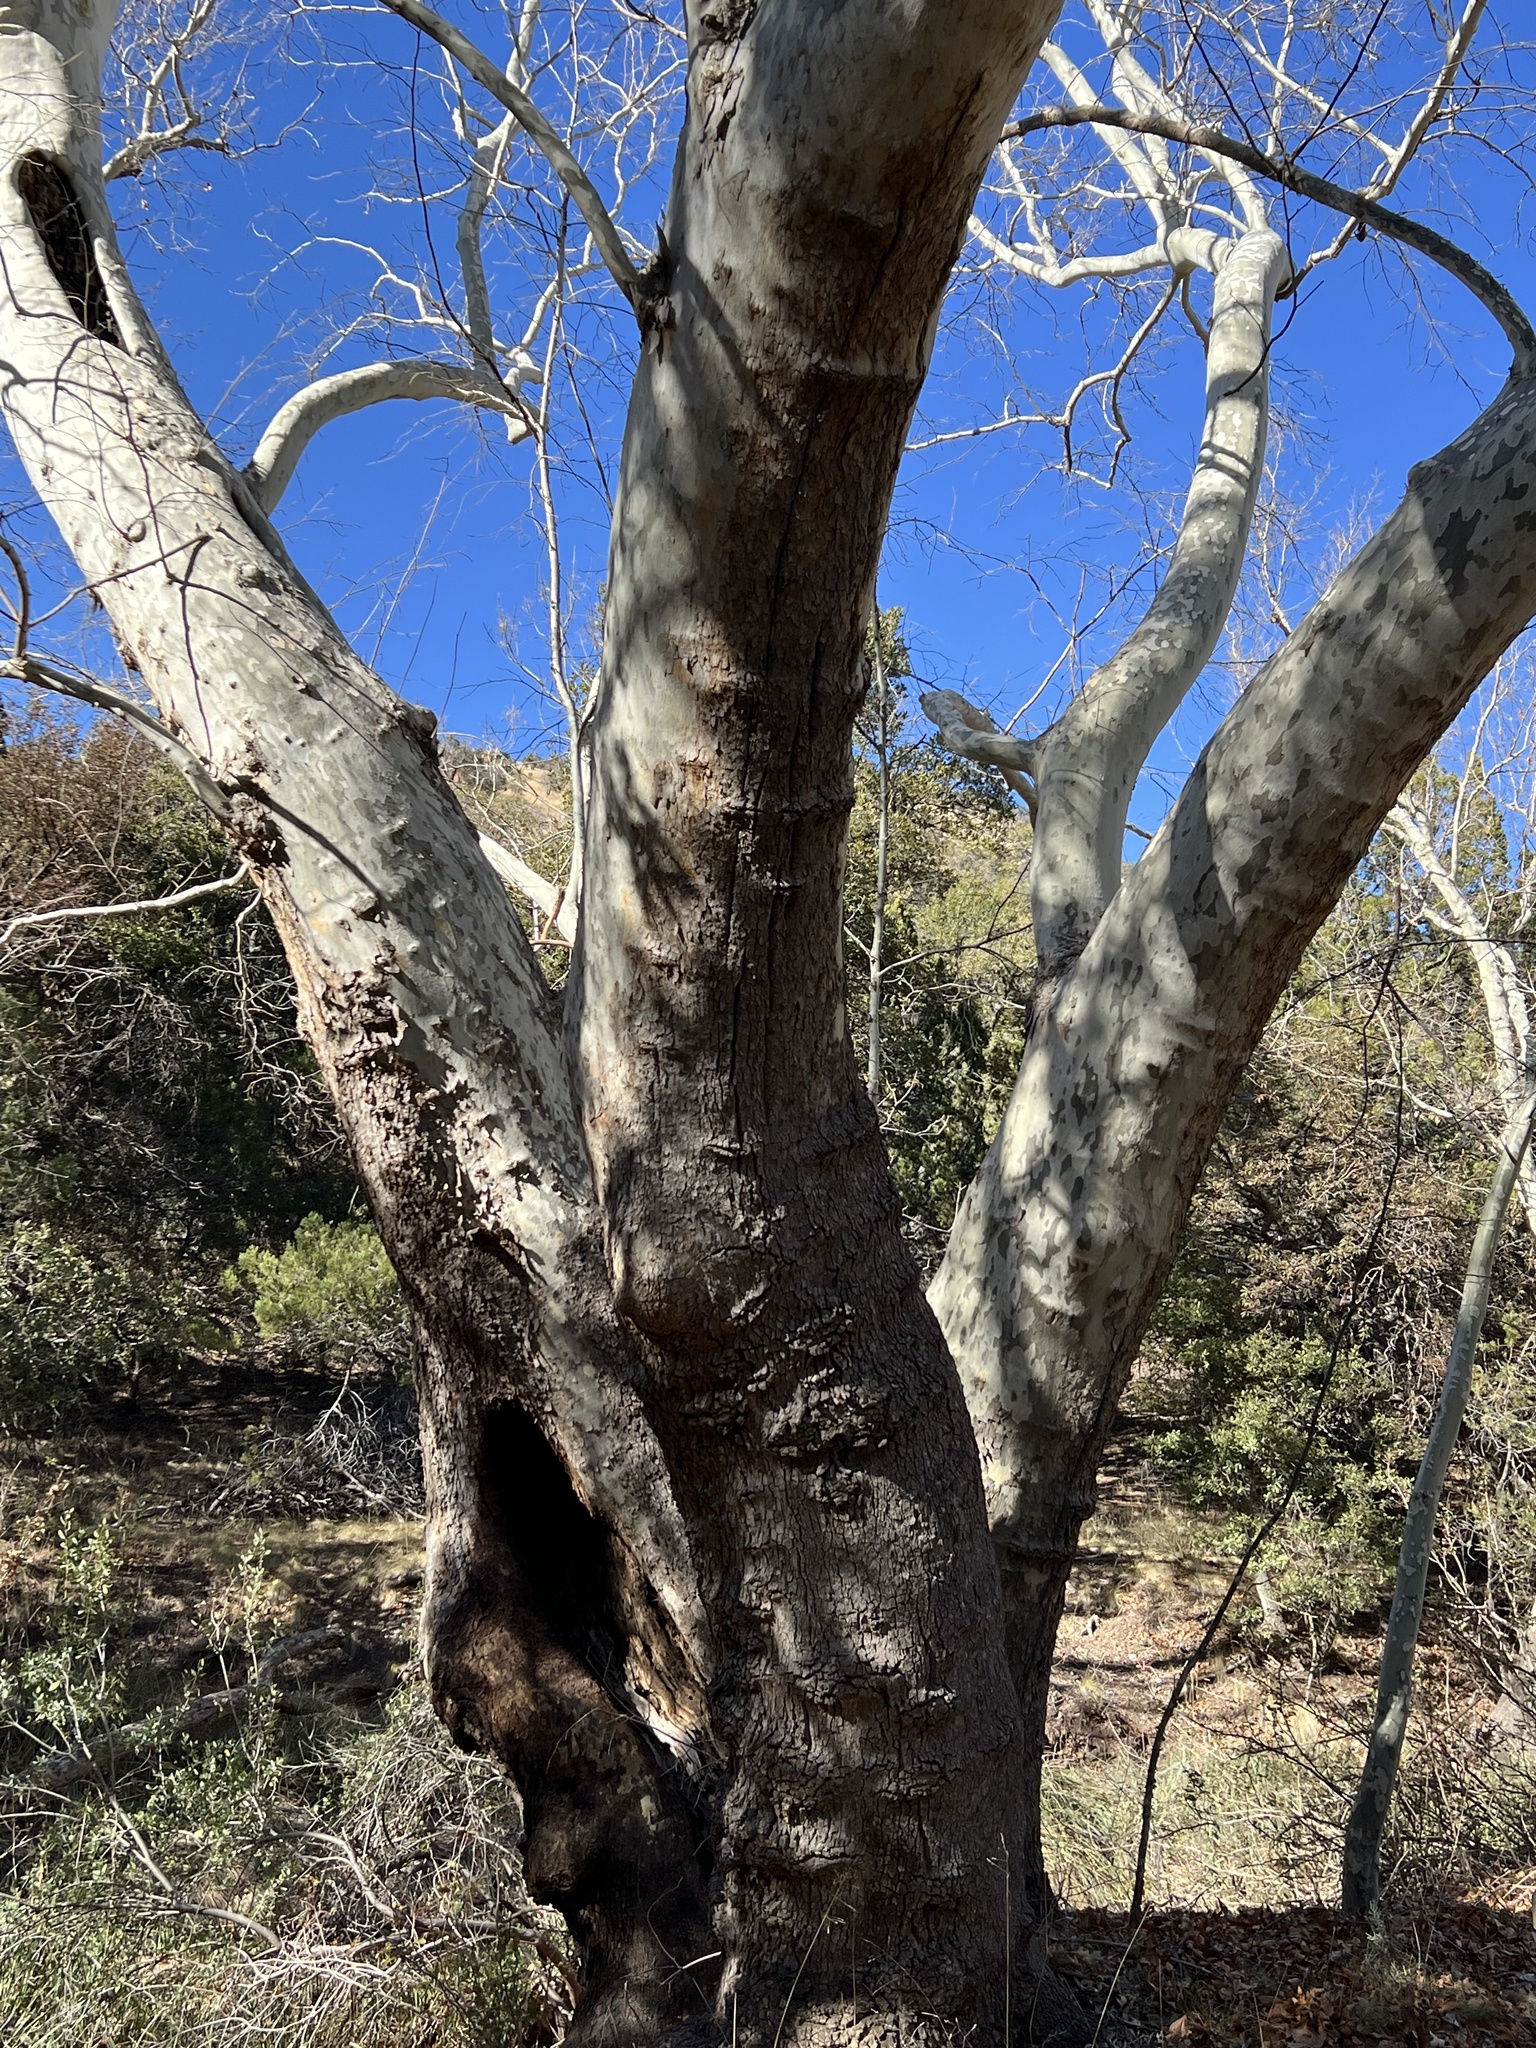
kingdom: Plantae
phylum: Tracheophyta
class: Magnoliopsida
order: Proteales
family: Platanaceae
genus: Platanus
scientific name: Platanus wrightii
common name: Arizona sycamore
